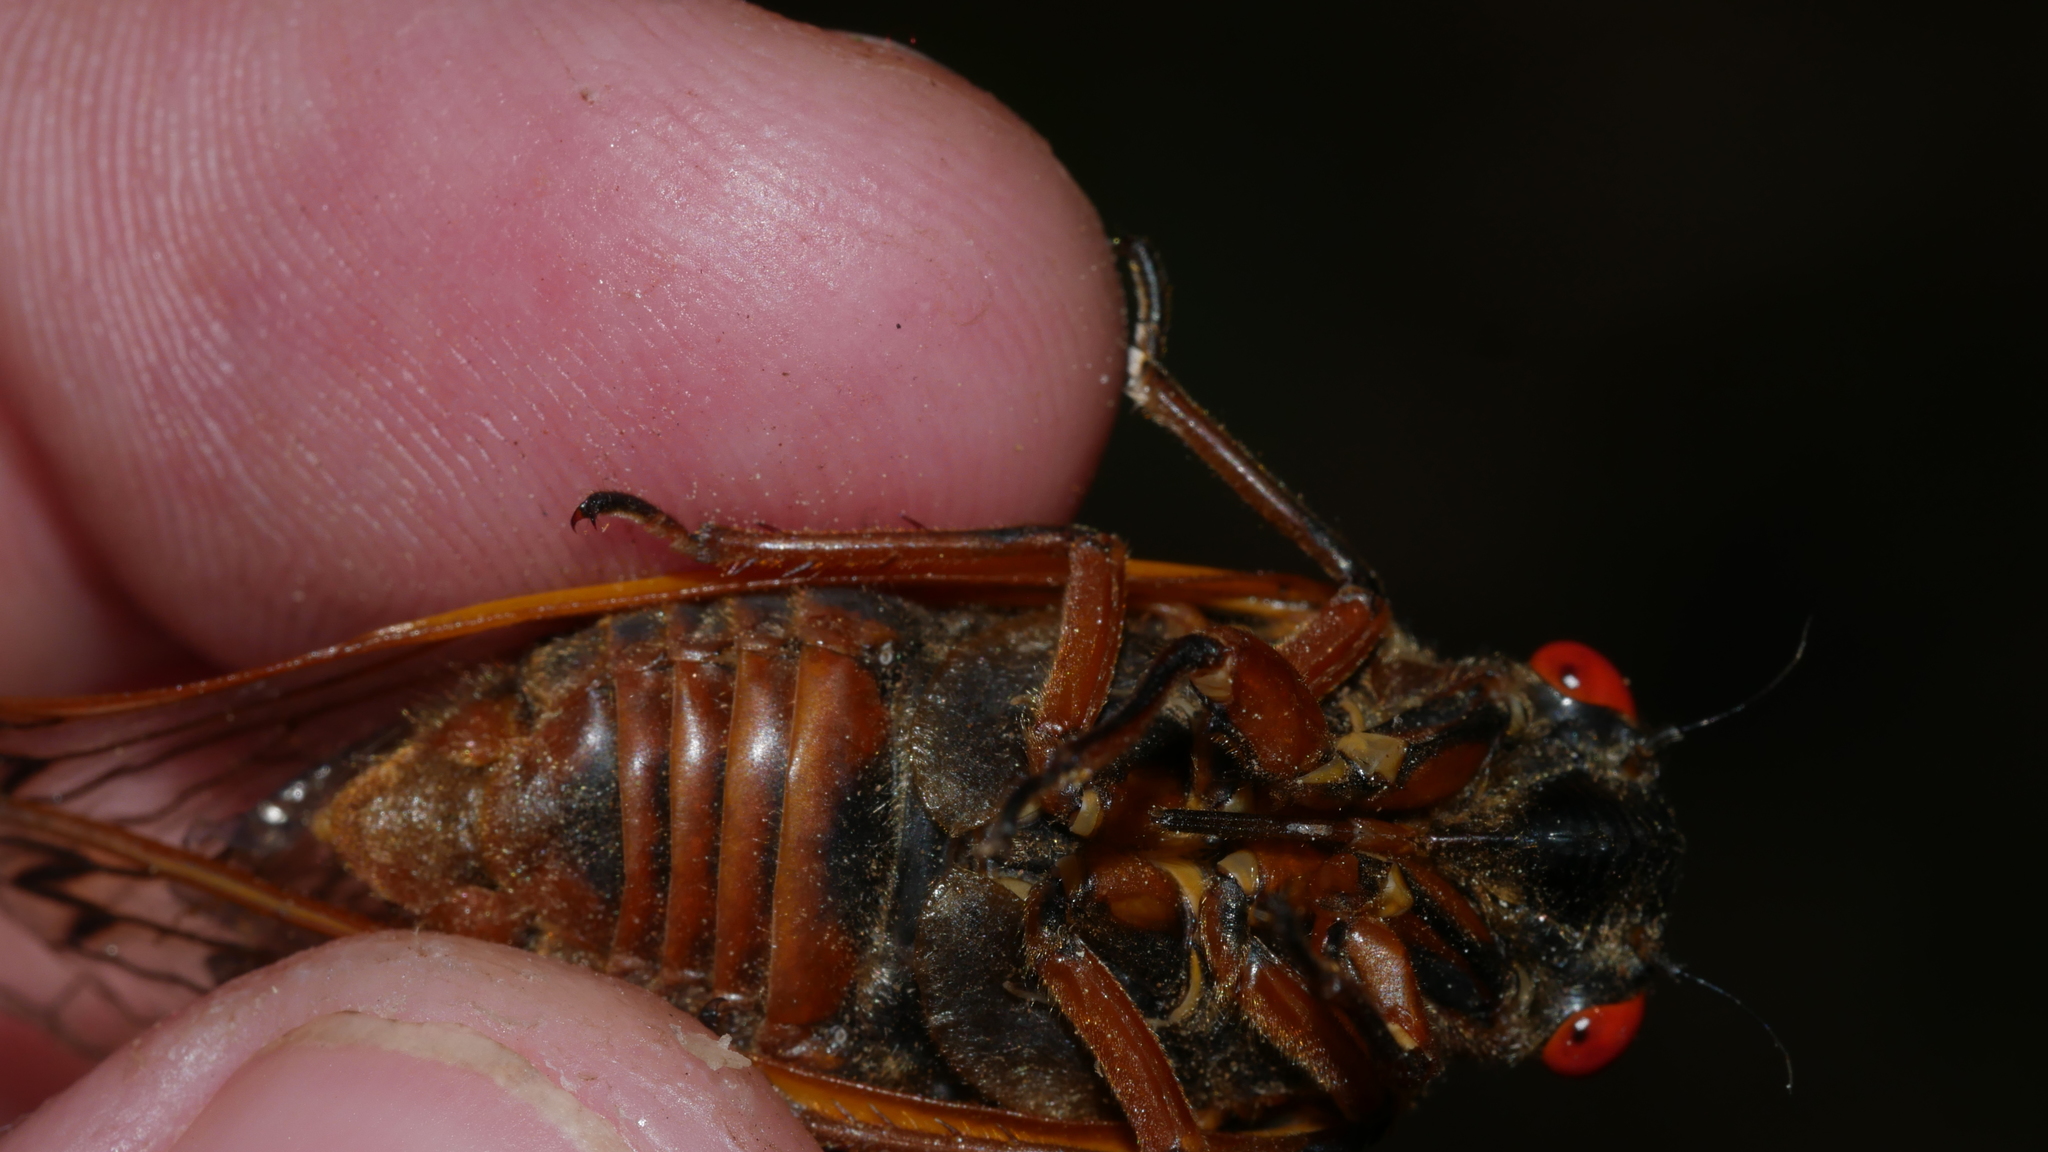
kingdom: Animalia
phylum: Arthropoda
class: Insecta
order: Hemiptera
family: Cicadidae
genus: Magicicada
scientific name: Magicicada septendecim
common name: Periodical cicada
